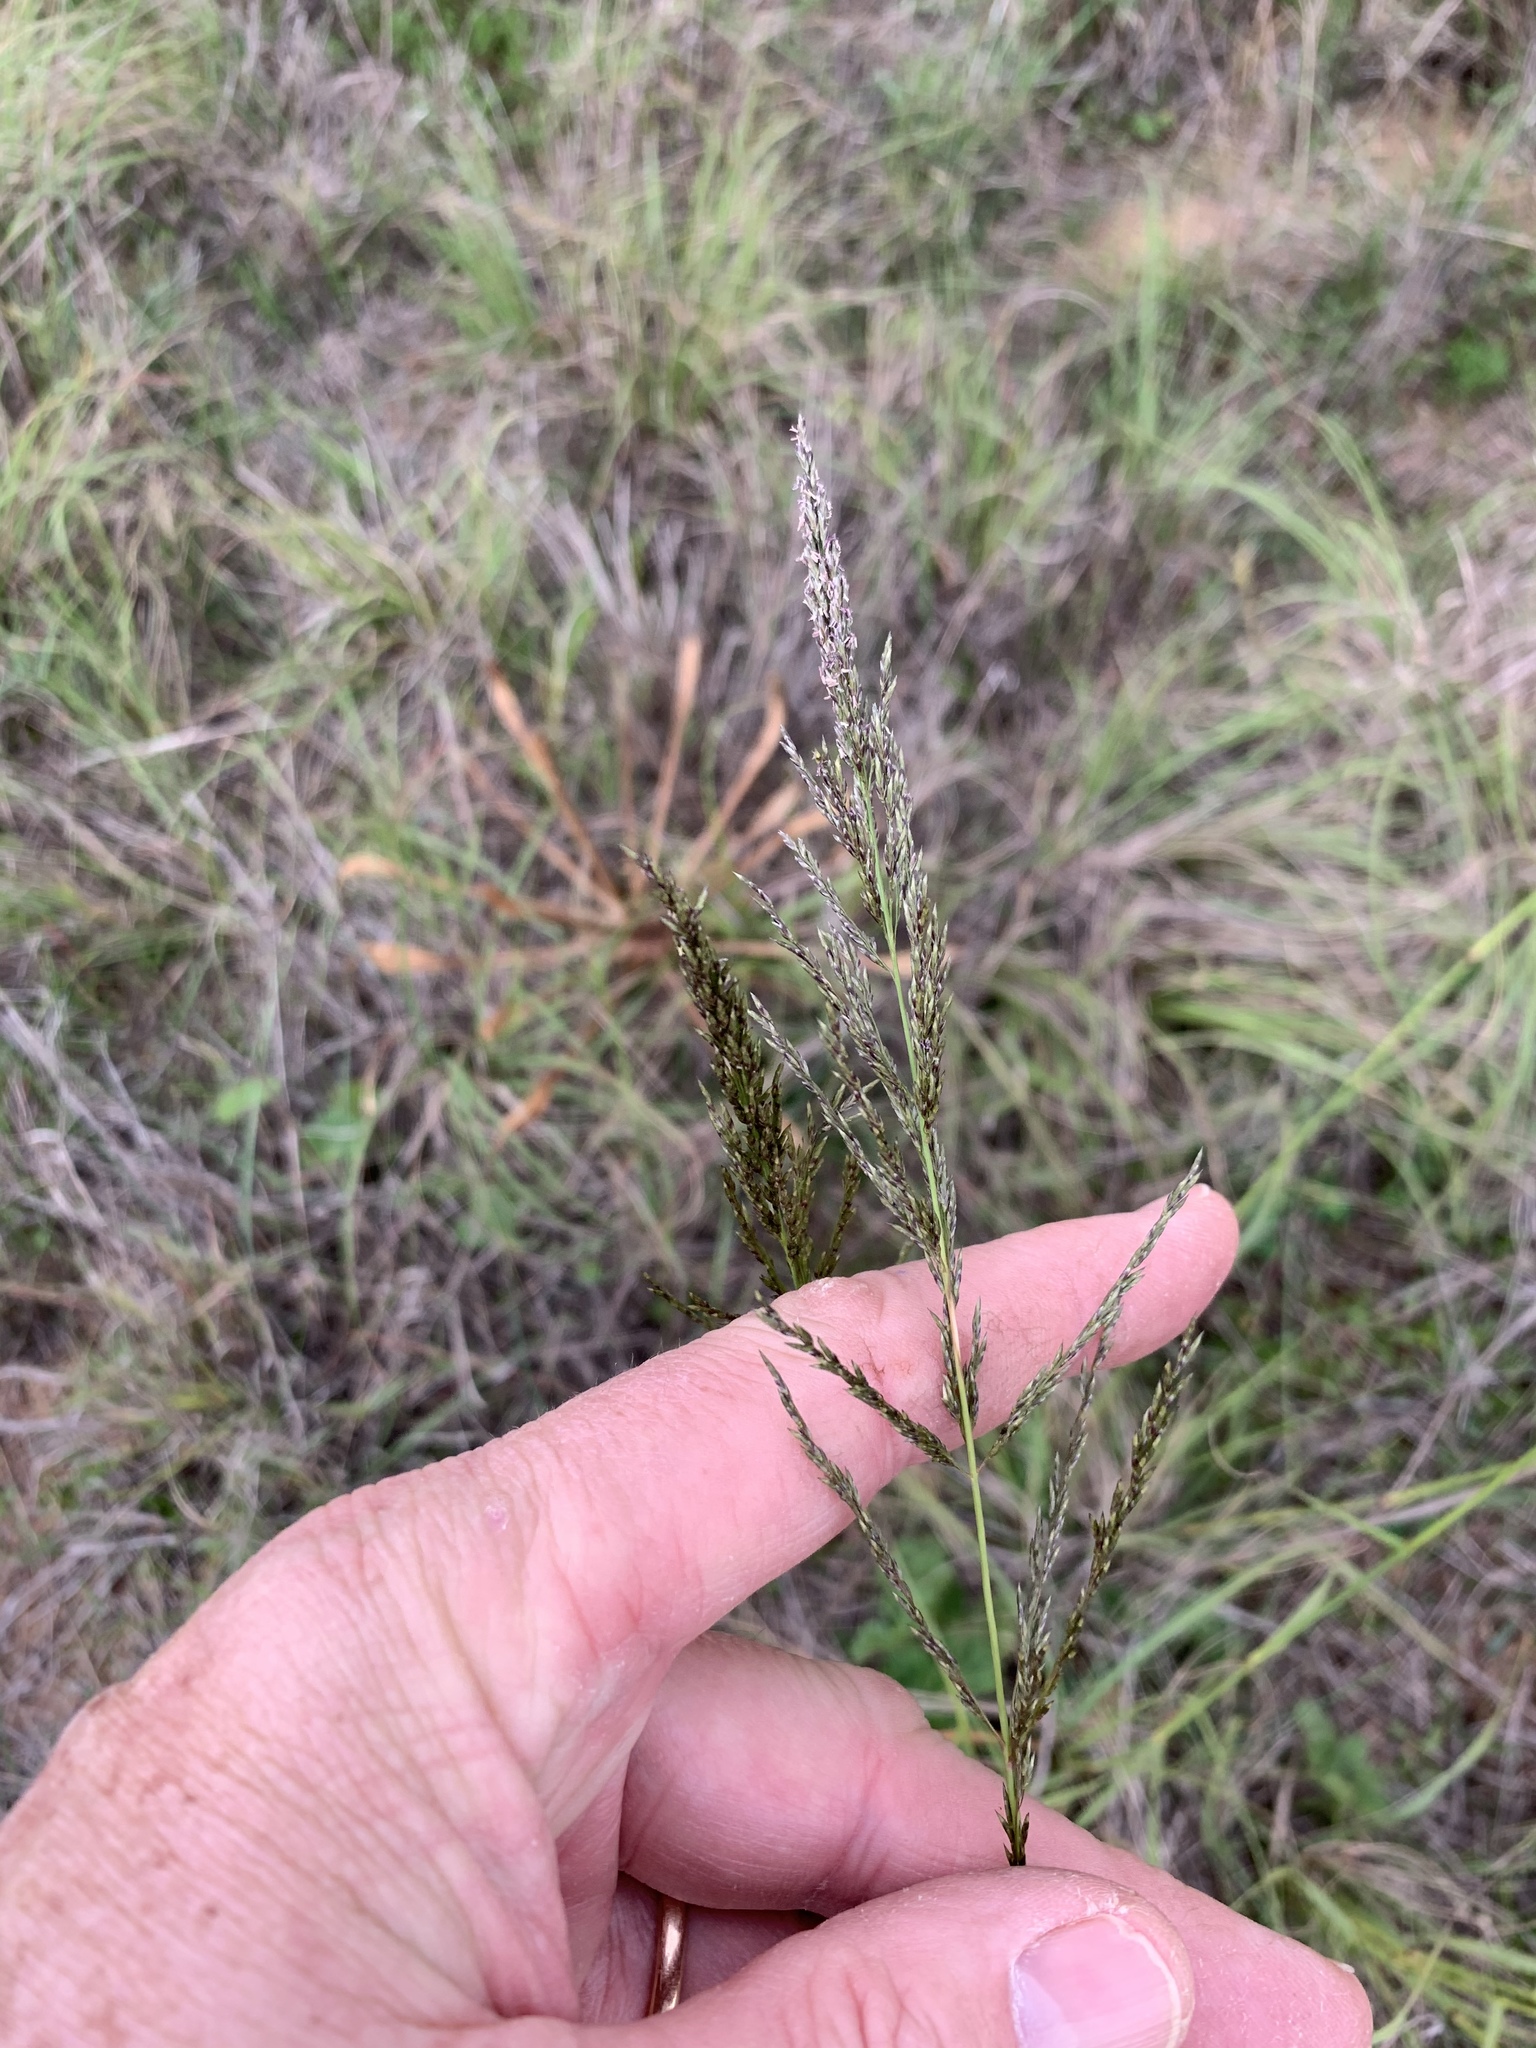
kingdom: Plantae
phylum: Tracheophyta
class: Liliopsida
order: Poales
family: Poaceae
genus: Eragrostis
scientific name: Eragrostis curvula
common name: African love-grass
